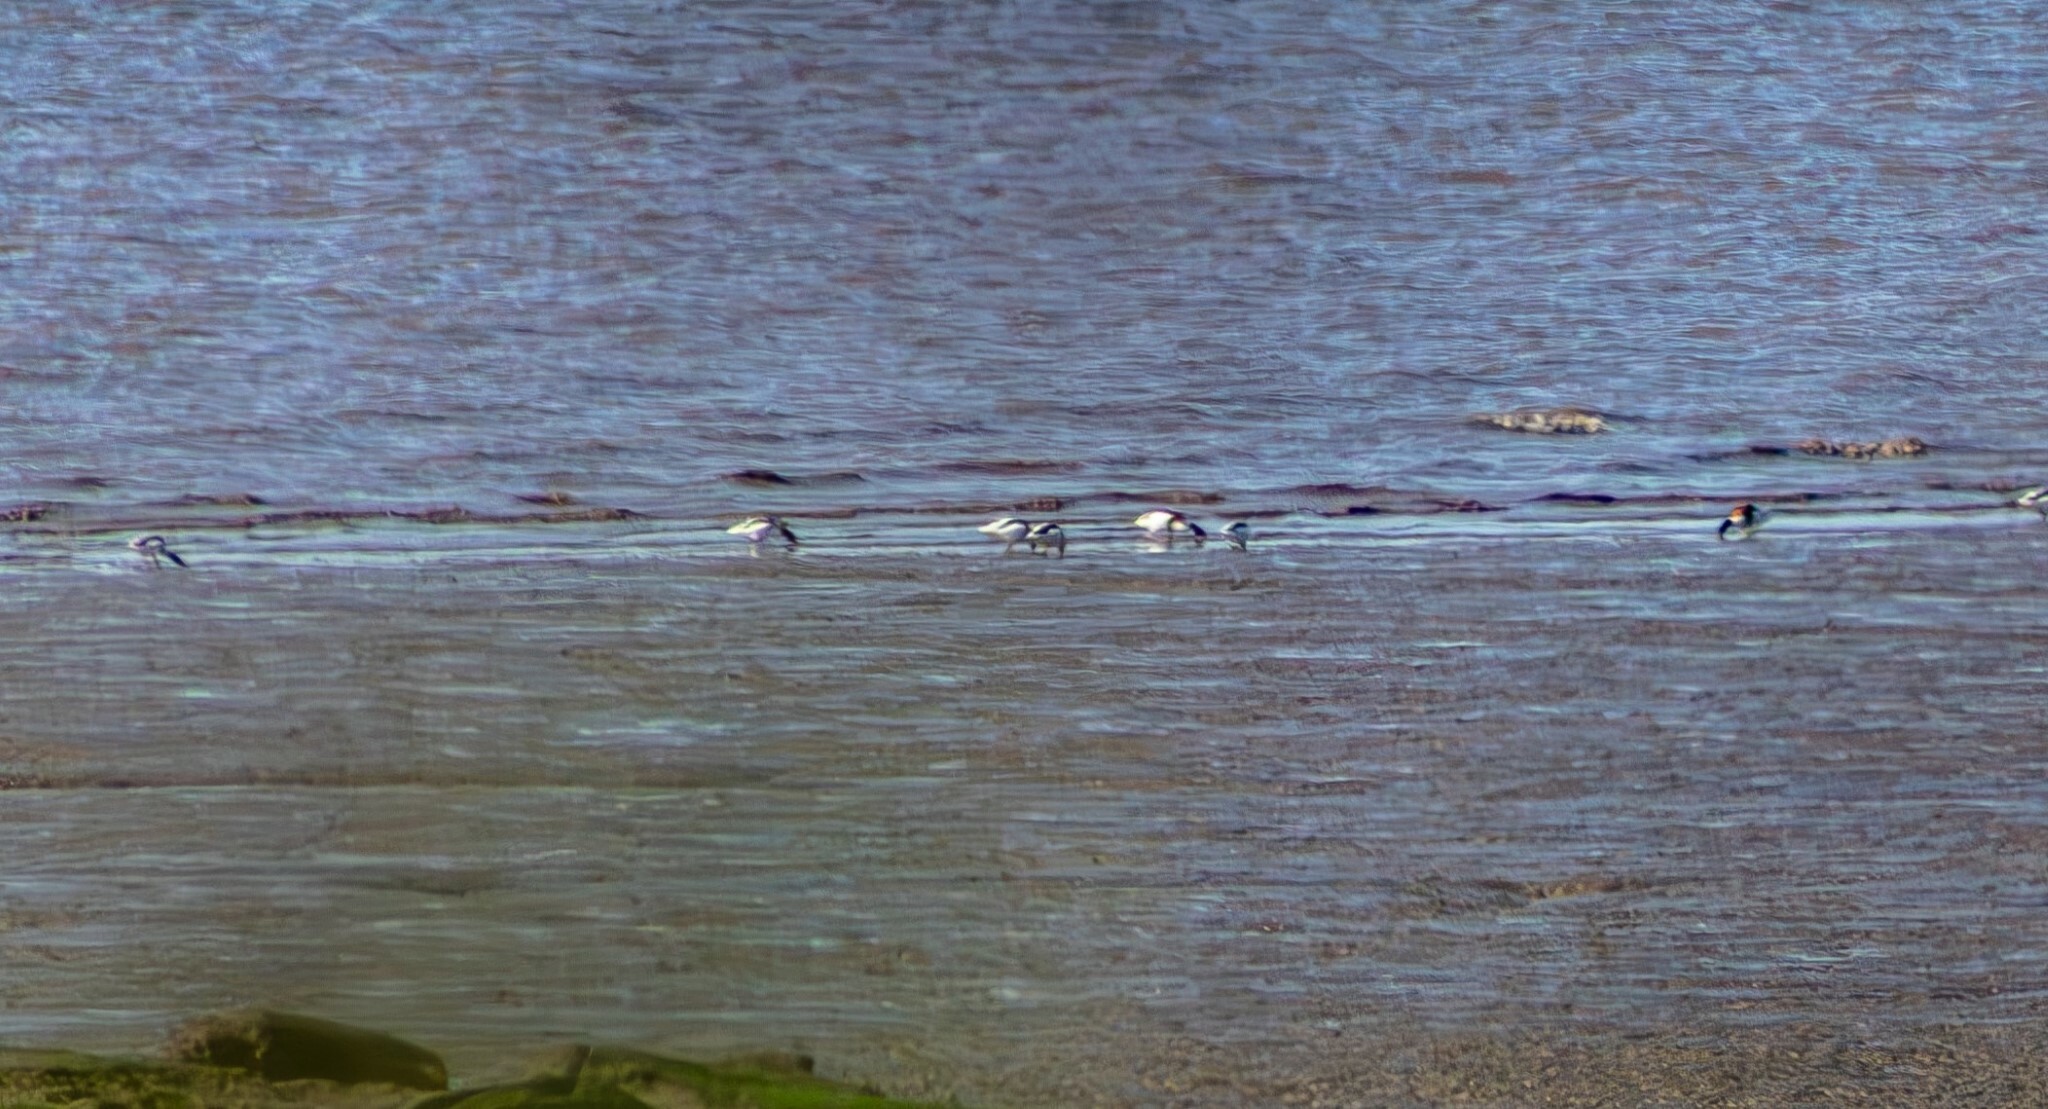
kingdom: Animalia
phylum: Chordata
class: Aves
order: Anseriformes
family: Anatidae
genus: Tadorna
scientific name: Tadorna tadorna
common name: Common shelduck
